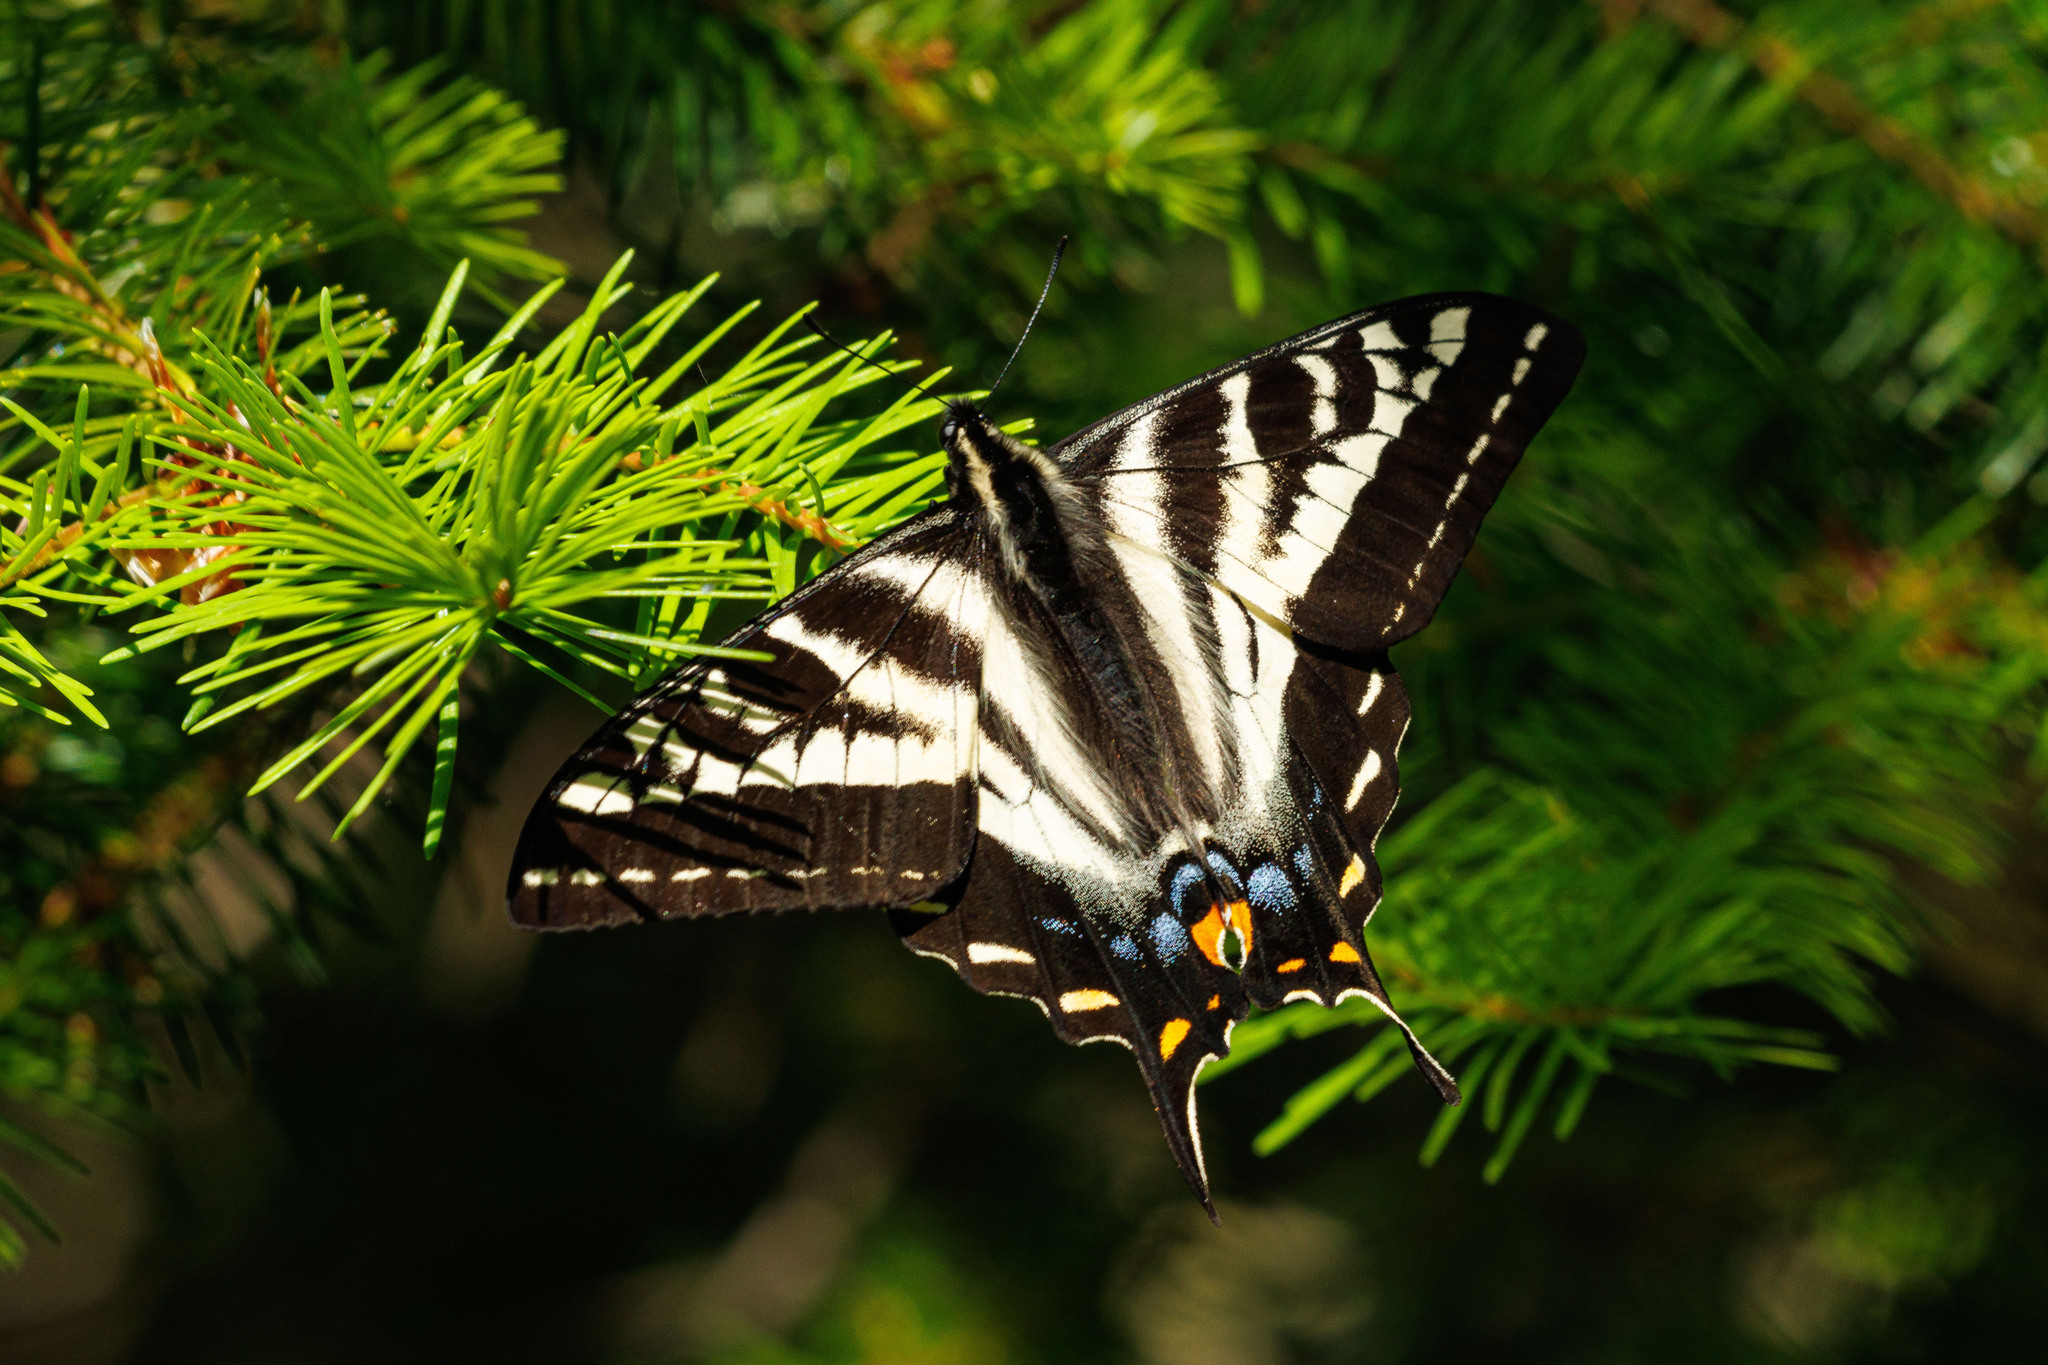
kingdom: Animalia
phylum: Arthropoda
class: Insecta
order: Lepidoptera
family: Papilionidae
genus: Papilio
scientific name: Papilio eurymedon
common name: Pale tiger swallowtail
